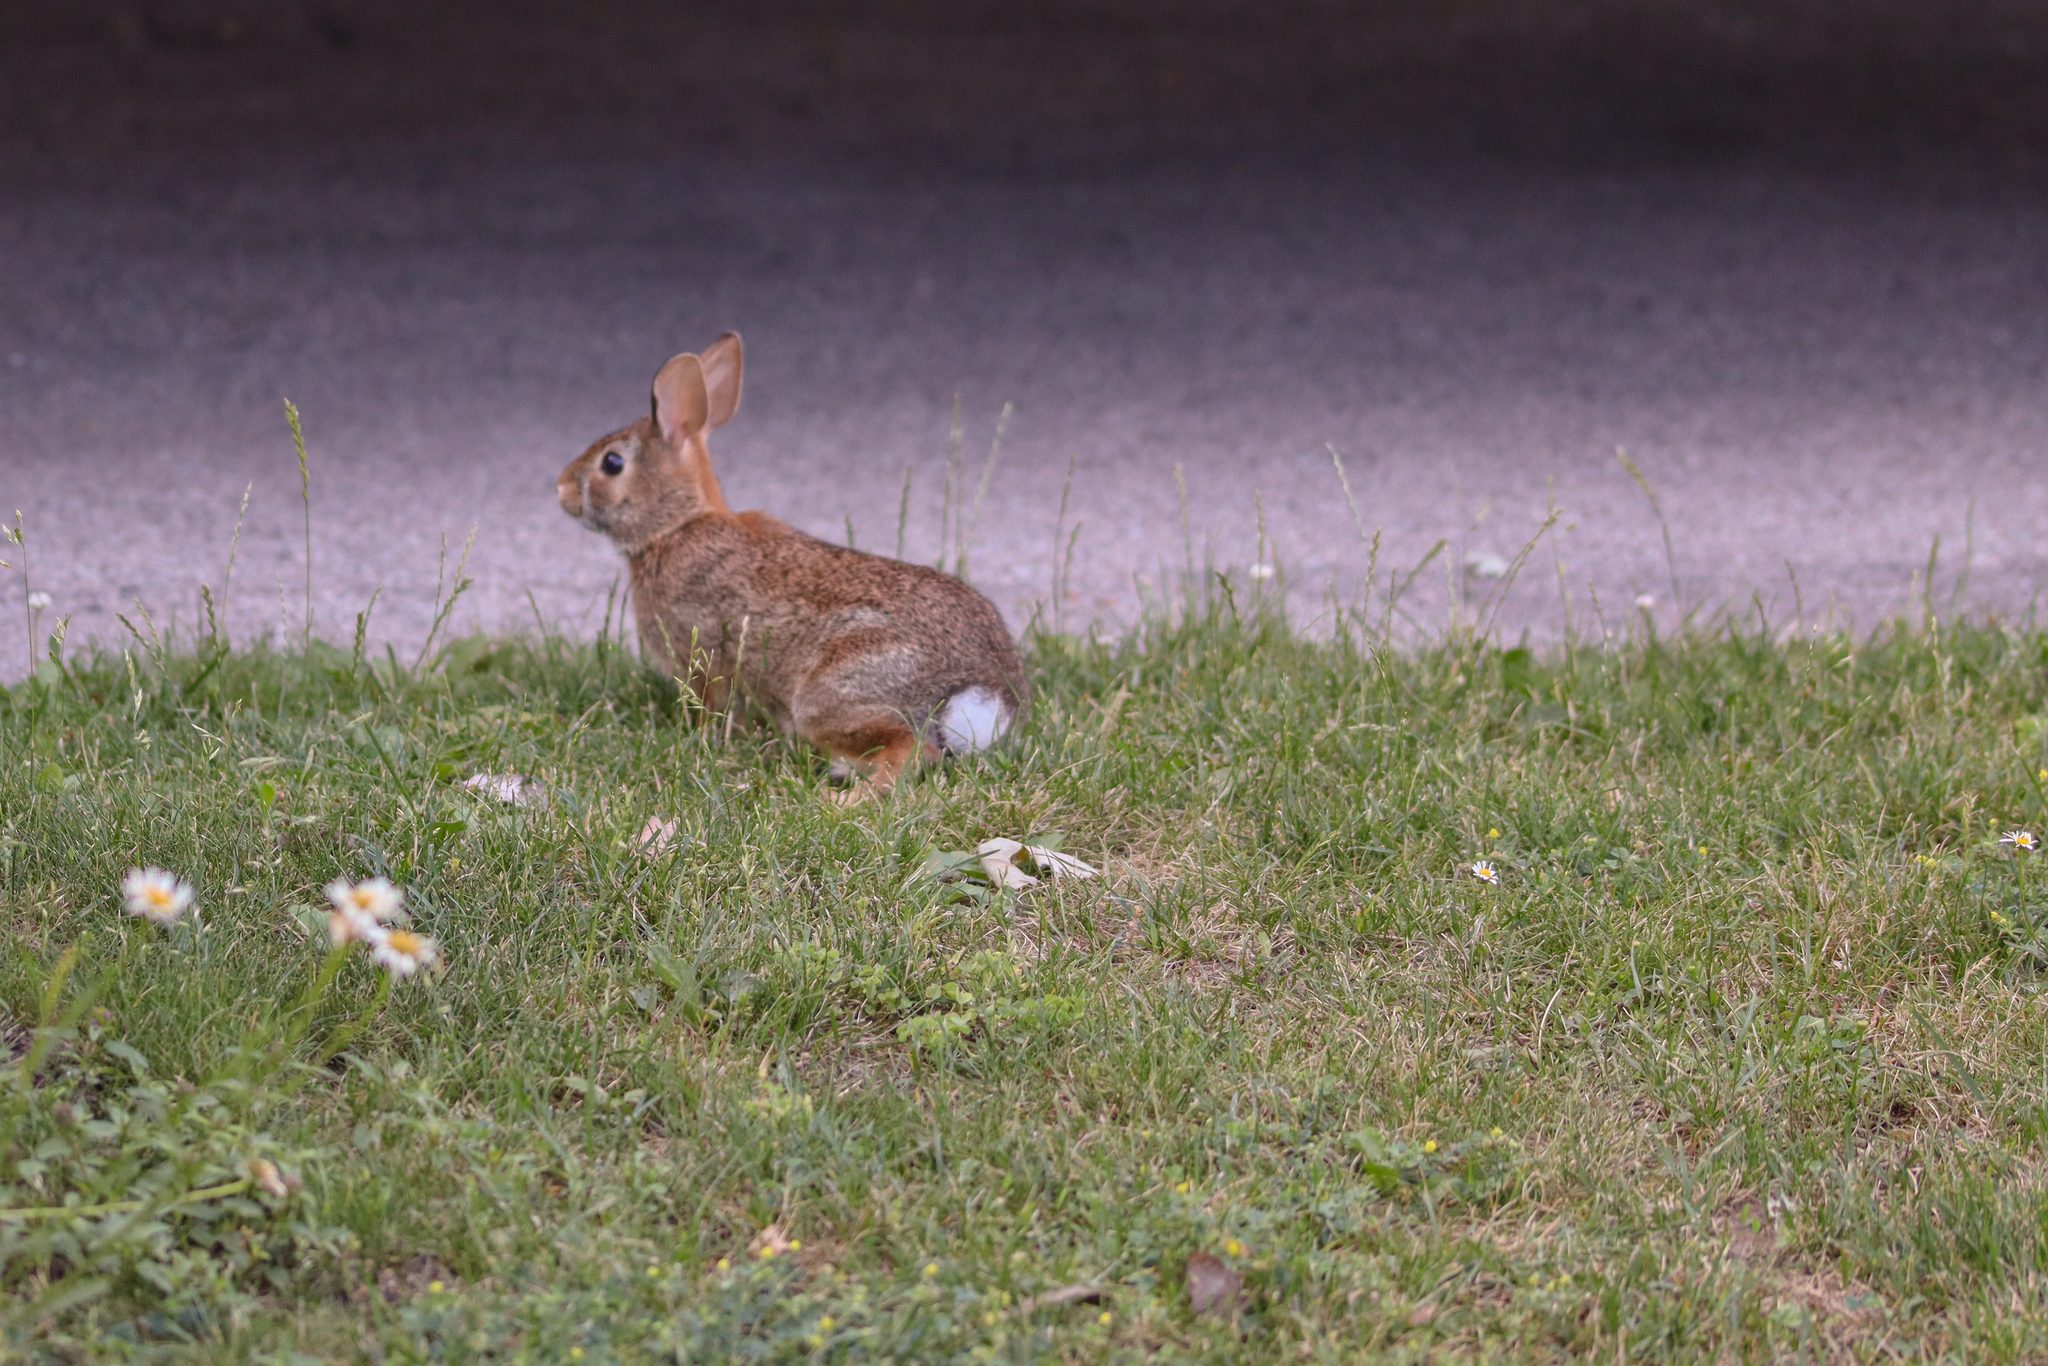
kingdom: Animalia
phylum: Chordata
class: Mammalia
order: Lagomorpha
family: Leporidae
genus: Sylvilagus
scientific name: Sylvilagus floridanus
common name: Eastern cottontail
